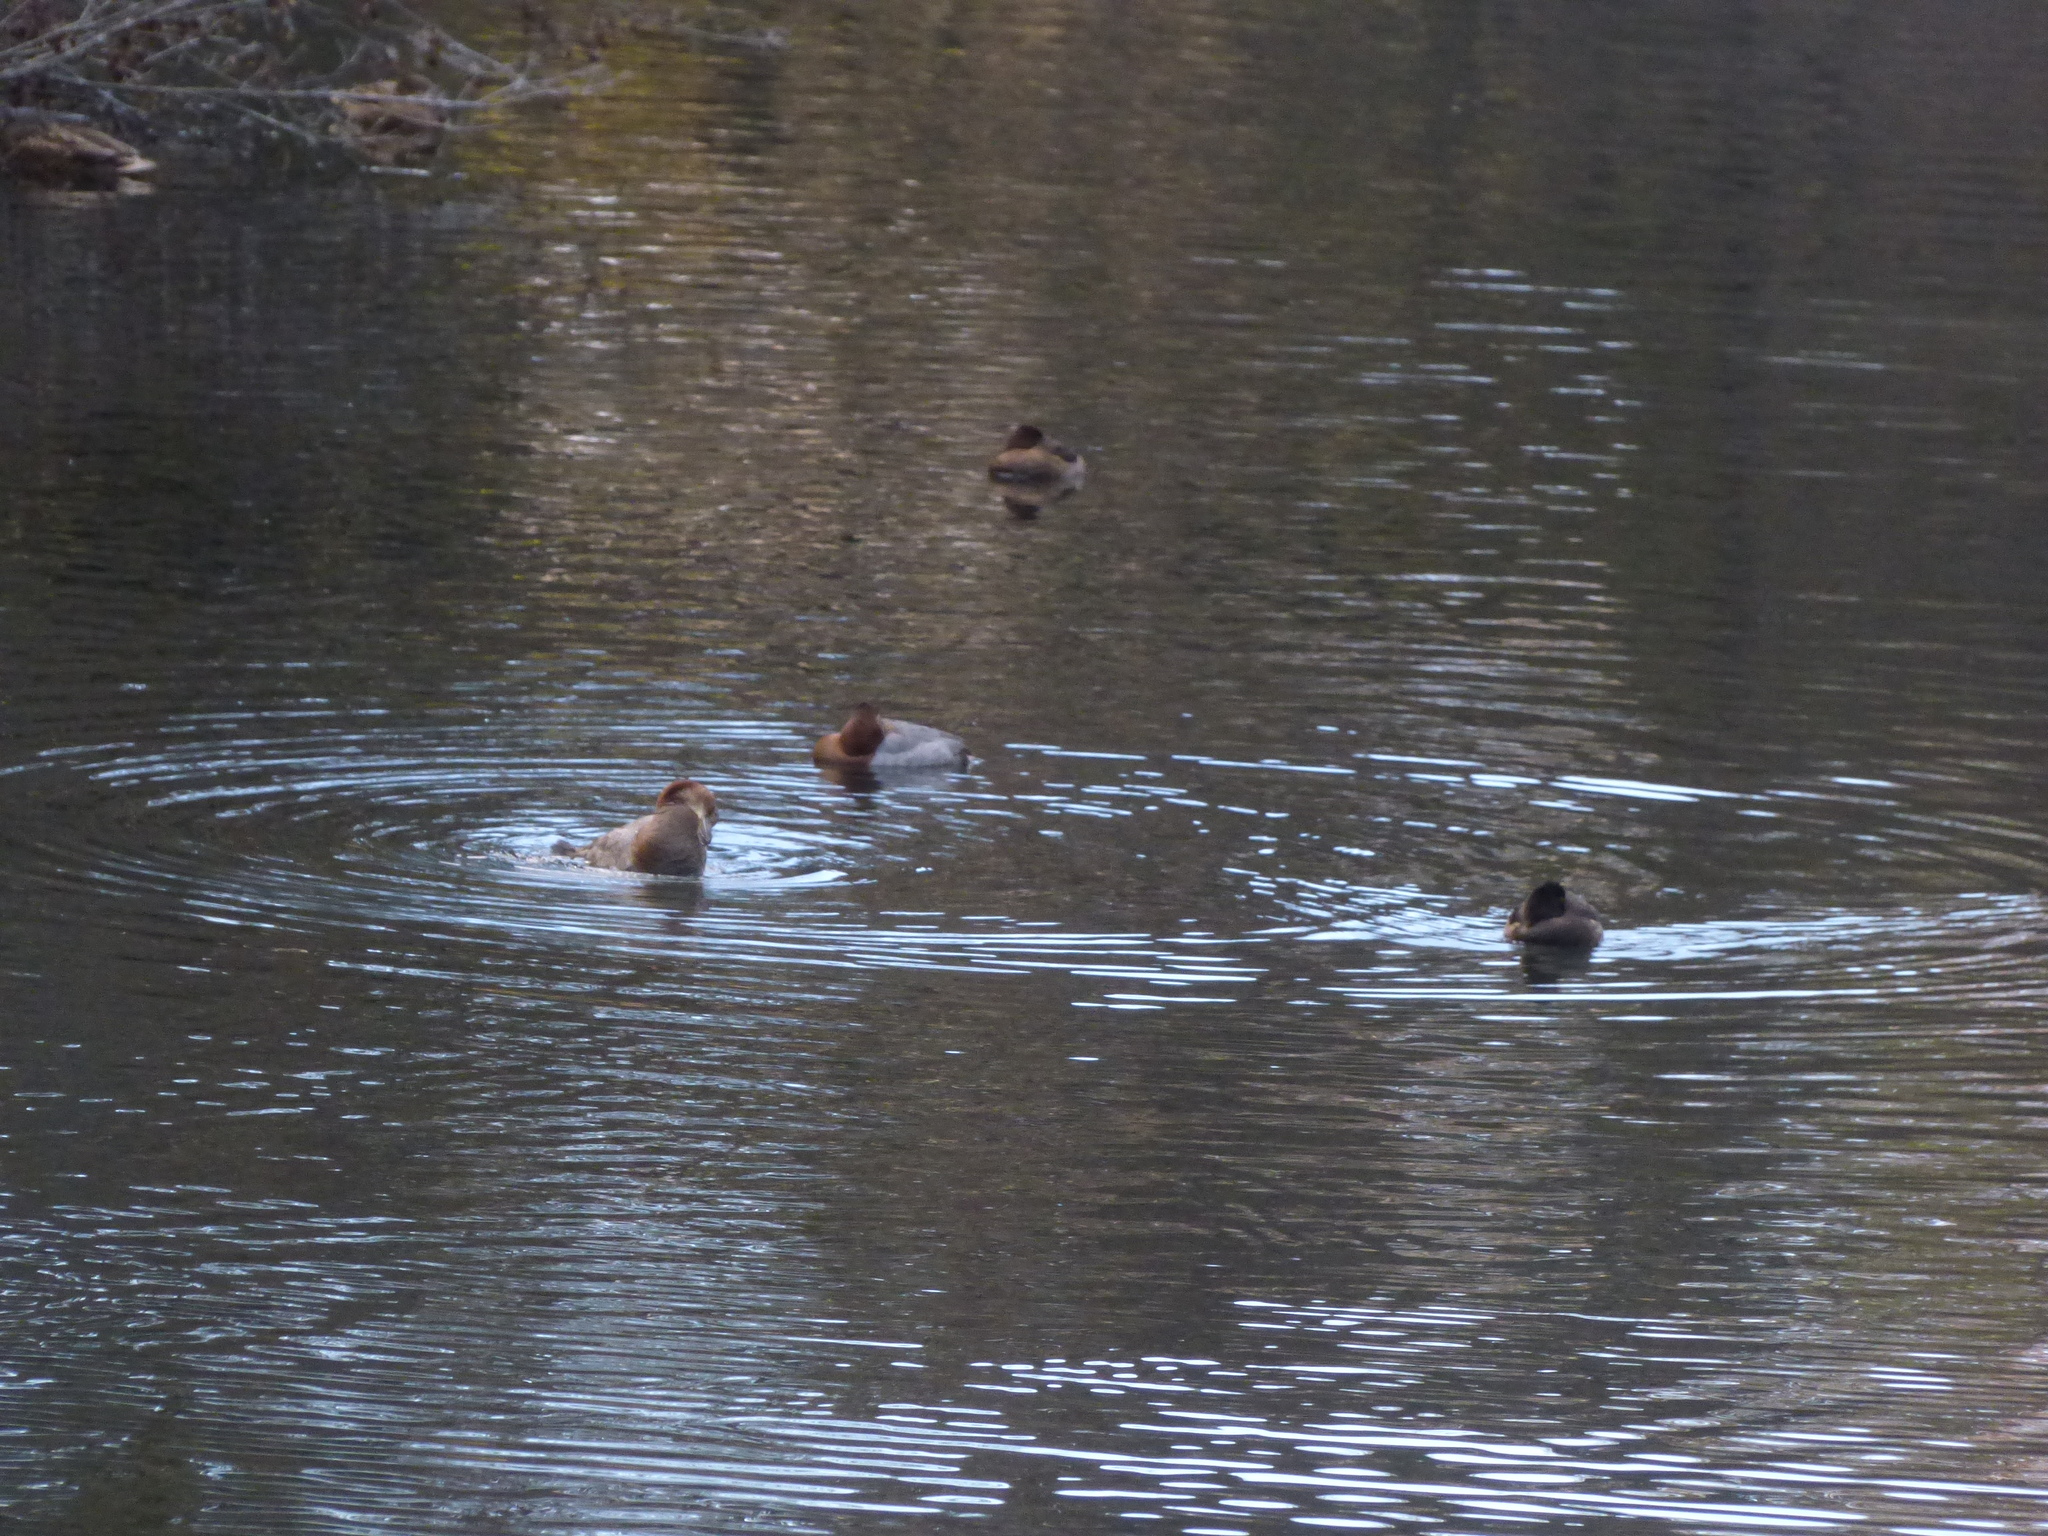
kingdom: Animalia
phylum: Chordata
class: Aves
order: Anseriformes
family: Anatidae
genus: Aythya
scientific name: Aythya ferina
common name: Common pochard
